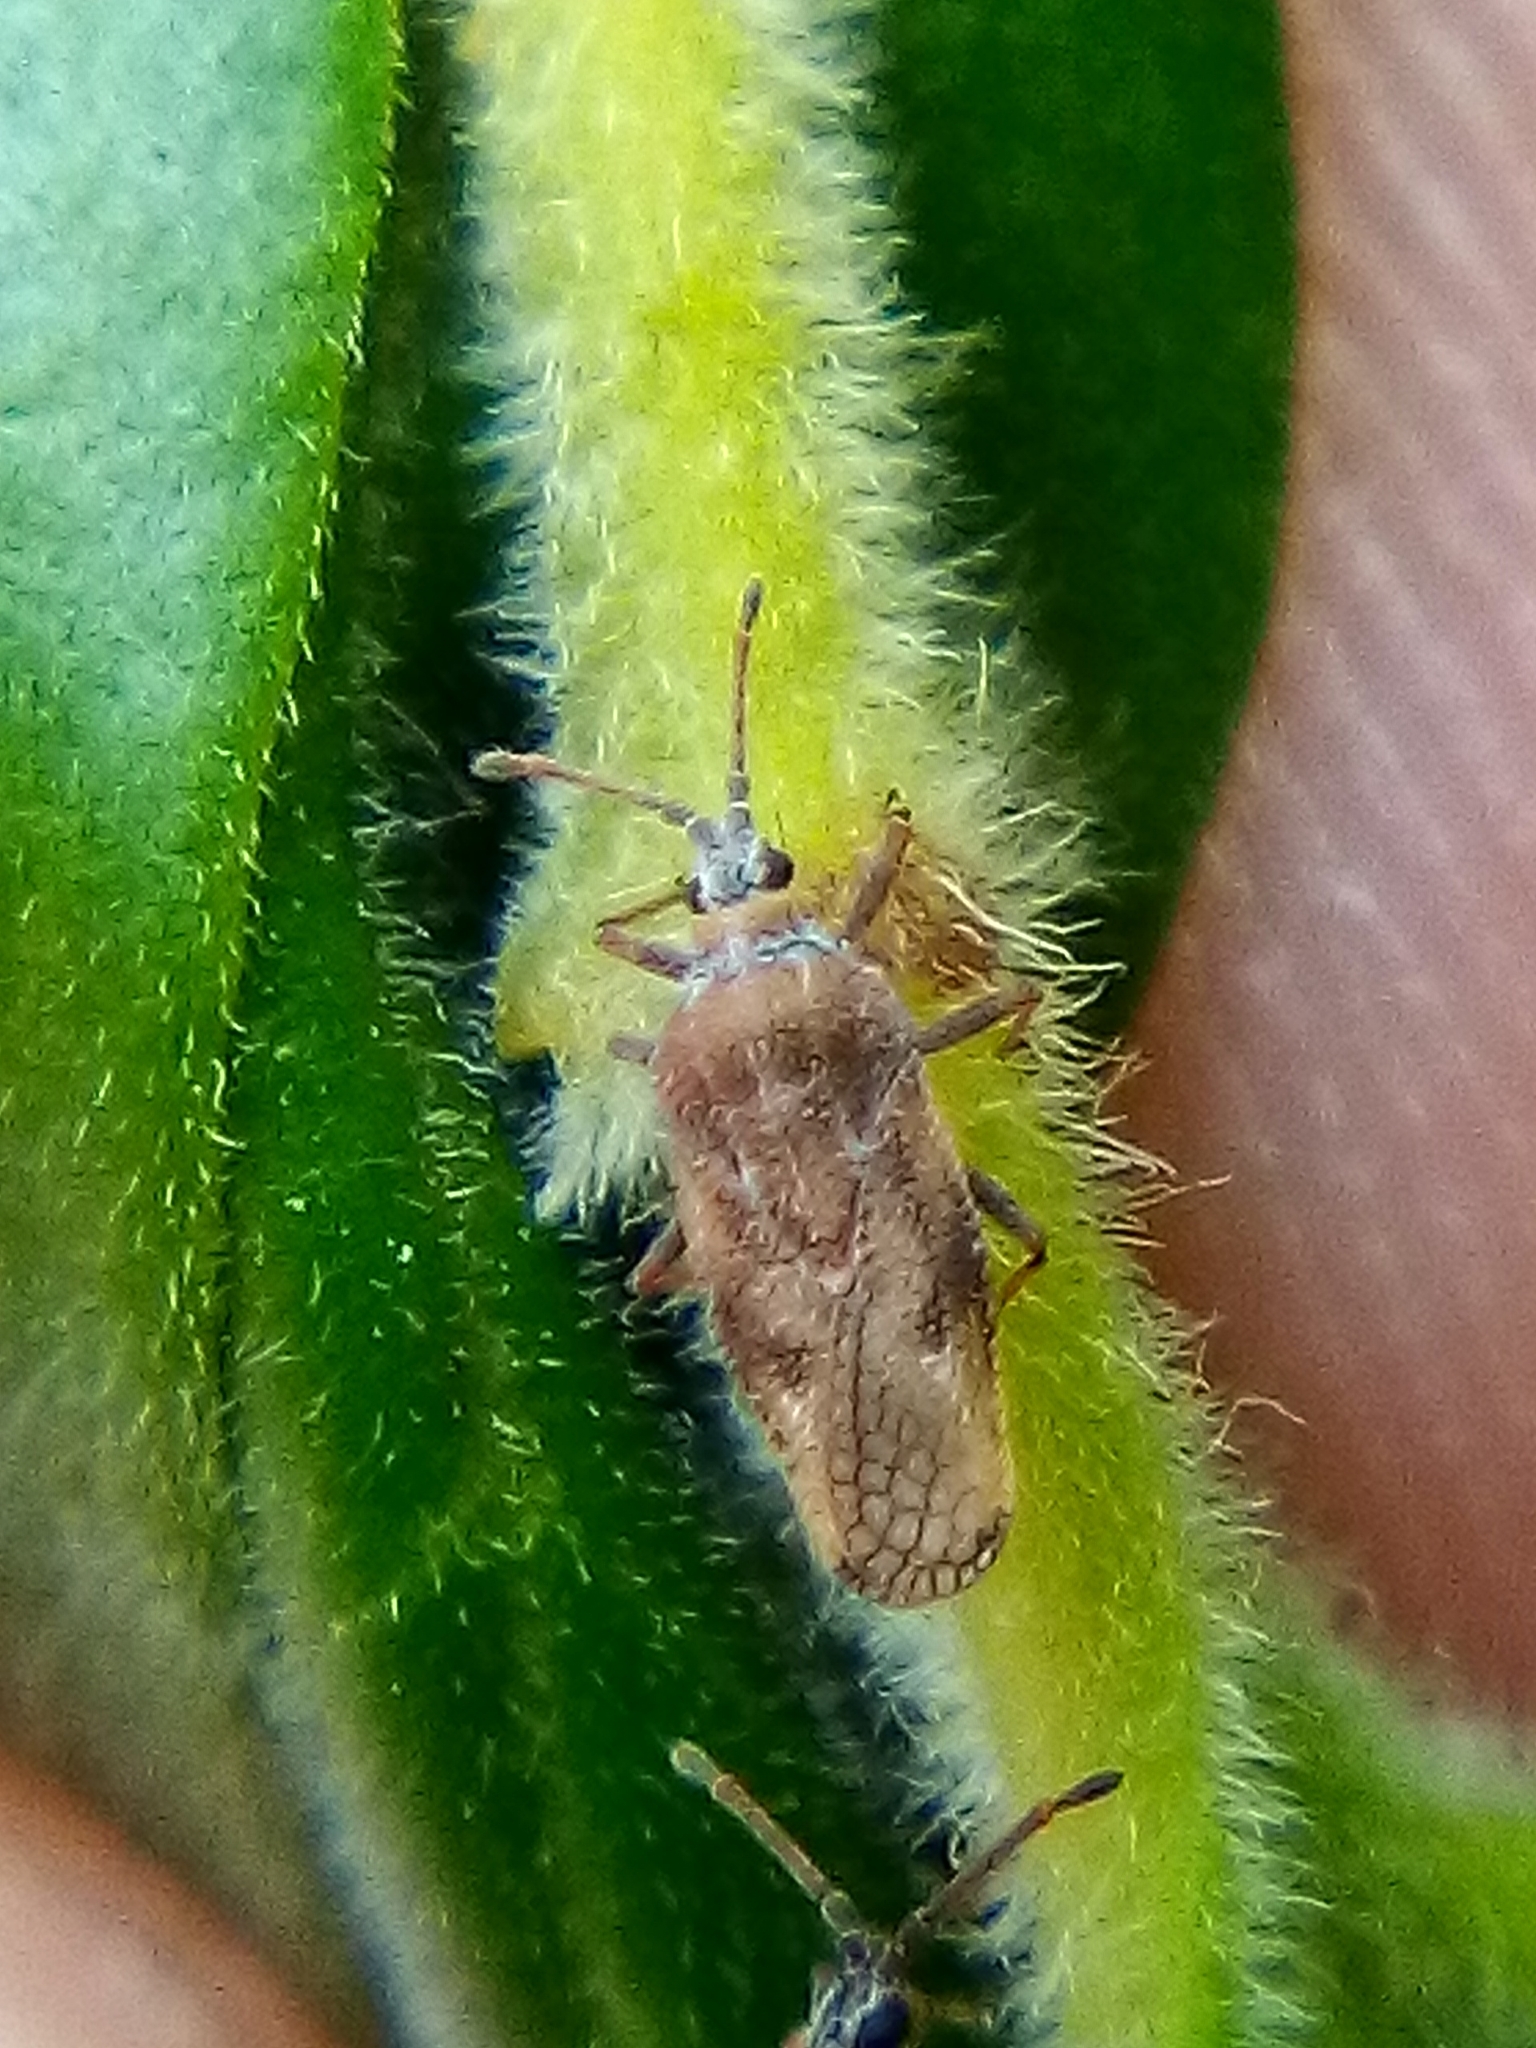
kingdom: Animalia
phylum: Arthropoda
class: Insecta
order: Hemiptera
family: Tingidae
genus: Leptoypha
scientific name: Leptoypha hospita
